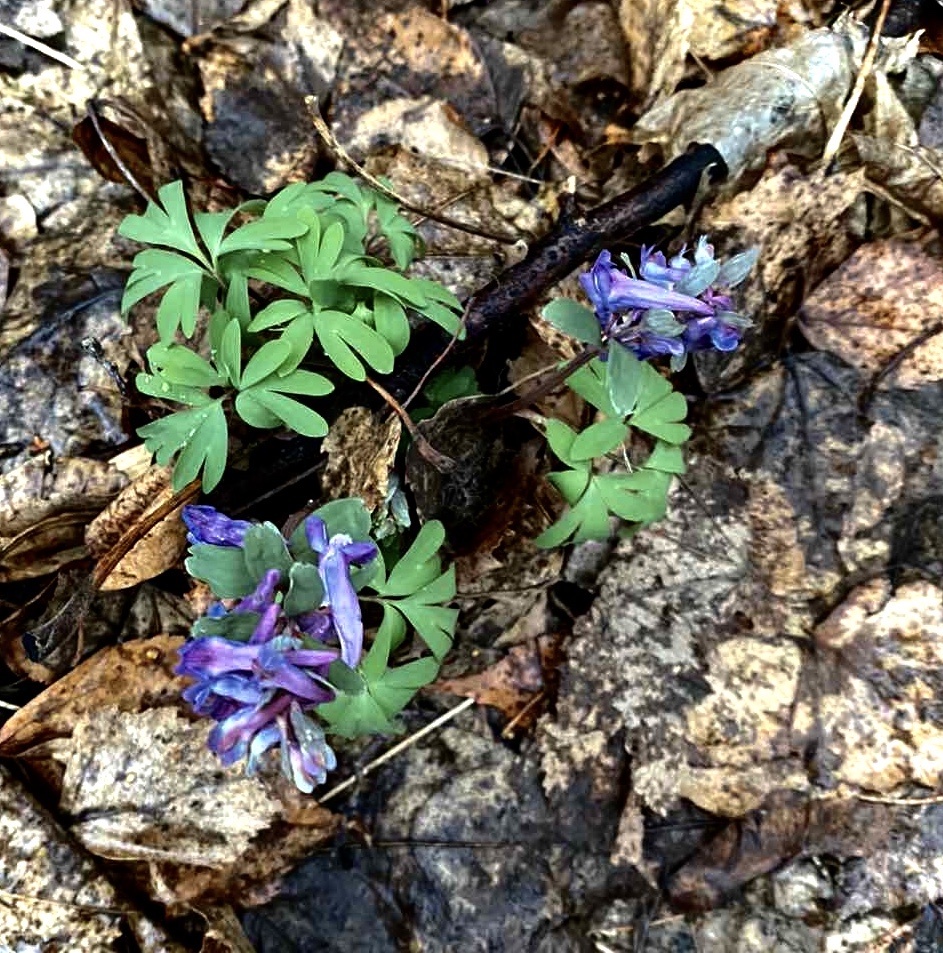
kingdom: Plantae
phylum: Tracheophyta
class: Magnoliopsida
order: Ranunculales
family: Papaveraceae
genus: Corydalis
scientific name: Corydalis solida
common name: Bird-in-a-bush
